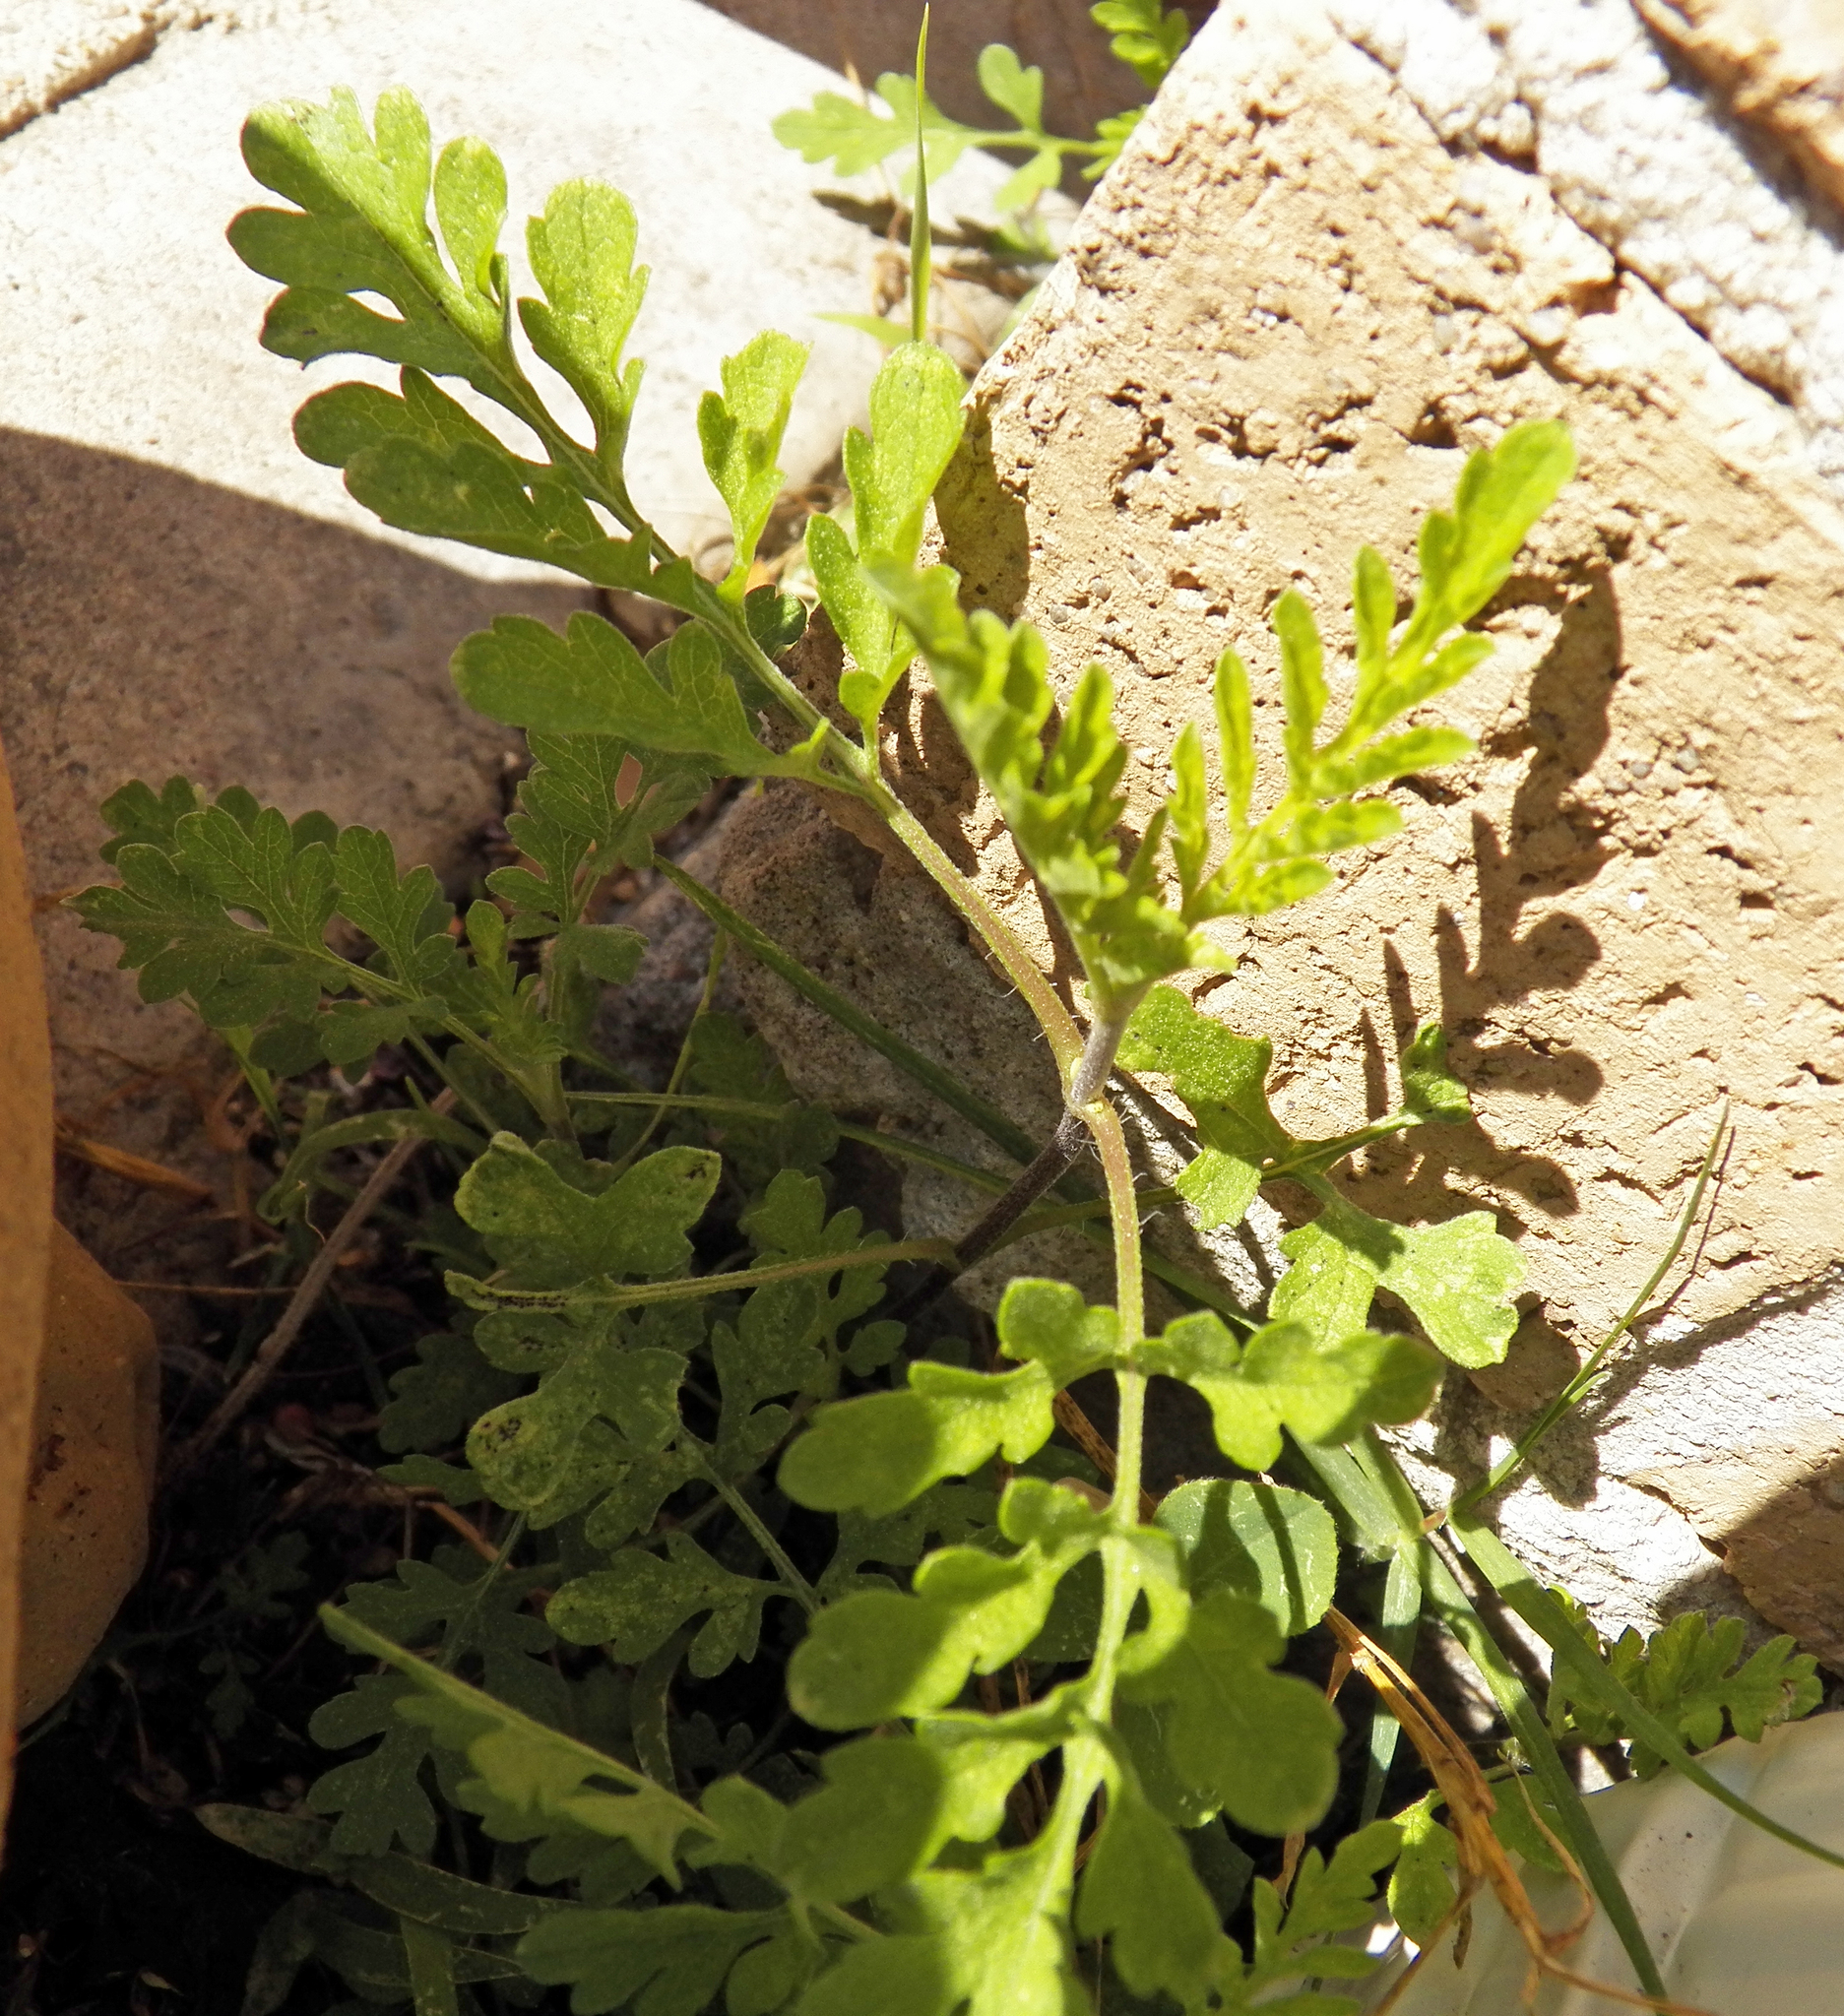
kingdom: Plantae
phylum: Tracheophyta
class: Magnoliopsida
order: Asterales
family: Asteraceae
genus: Ambrosia
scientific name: Ambrosia artemisiifolia
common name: Annual ragweed
